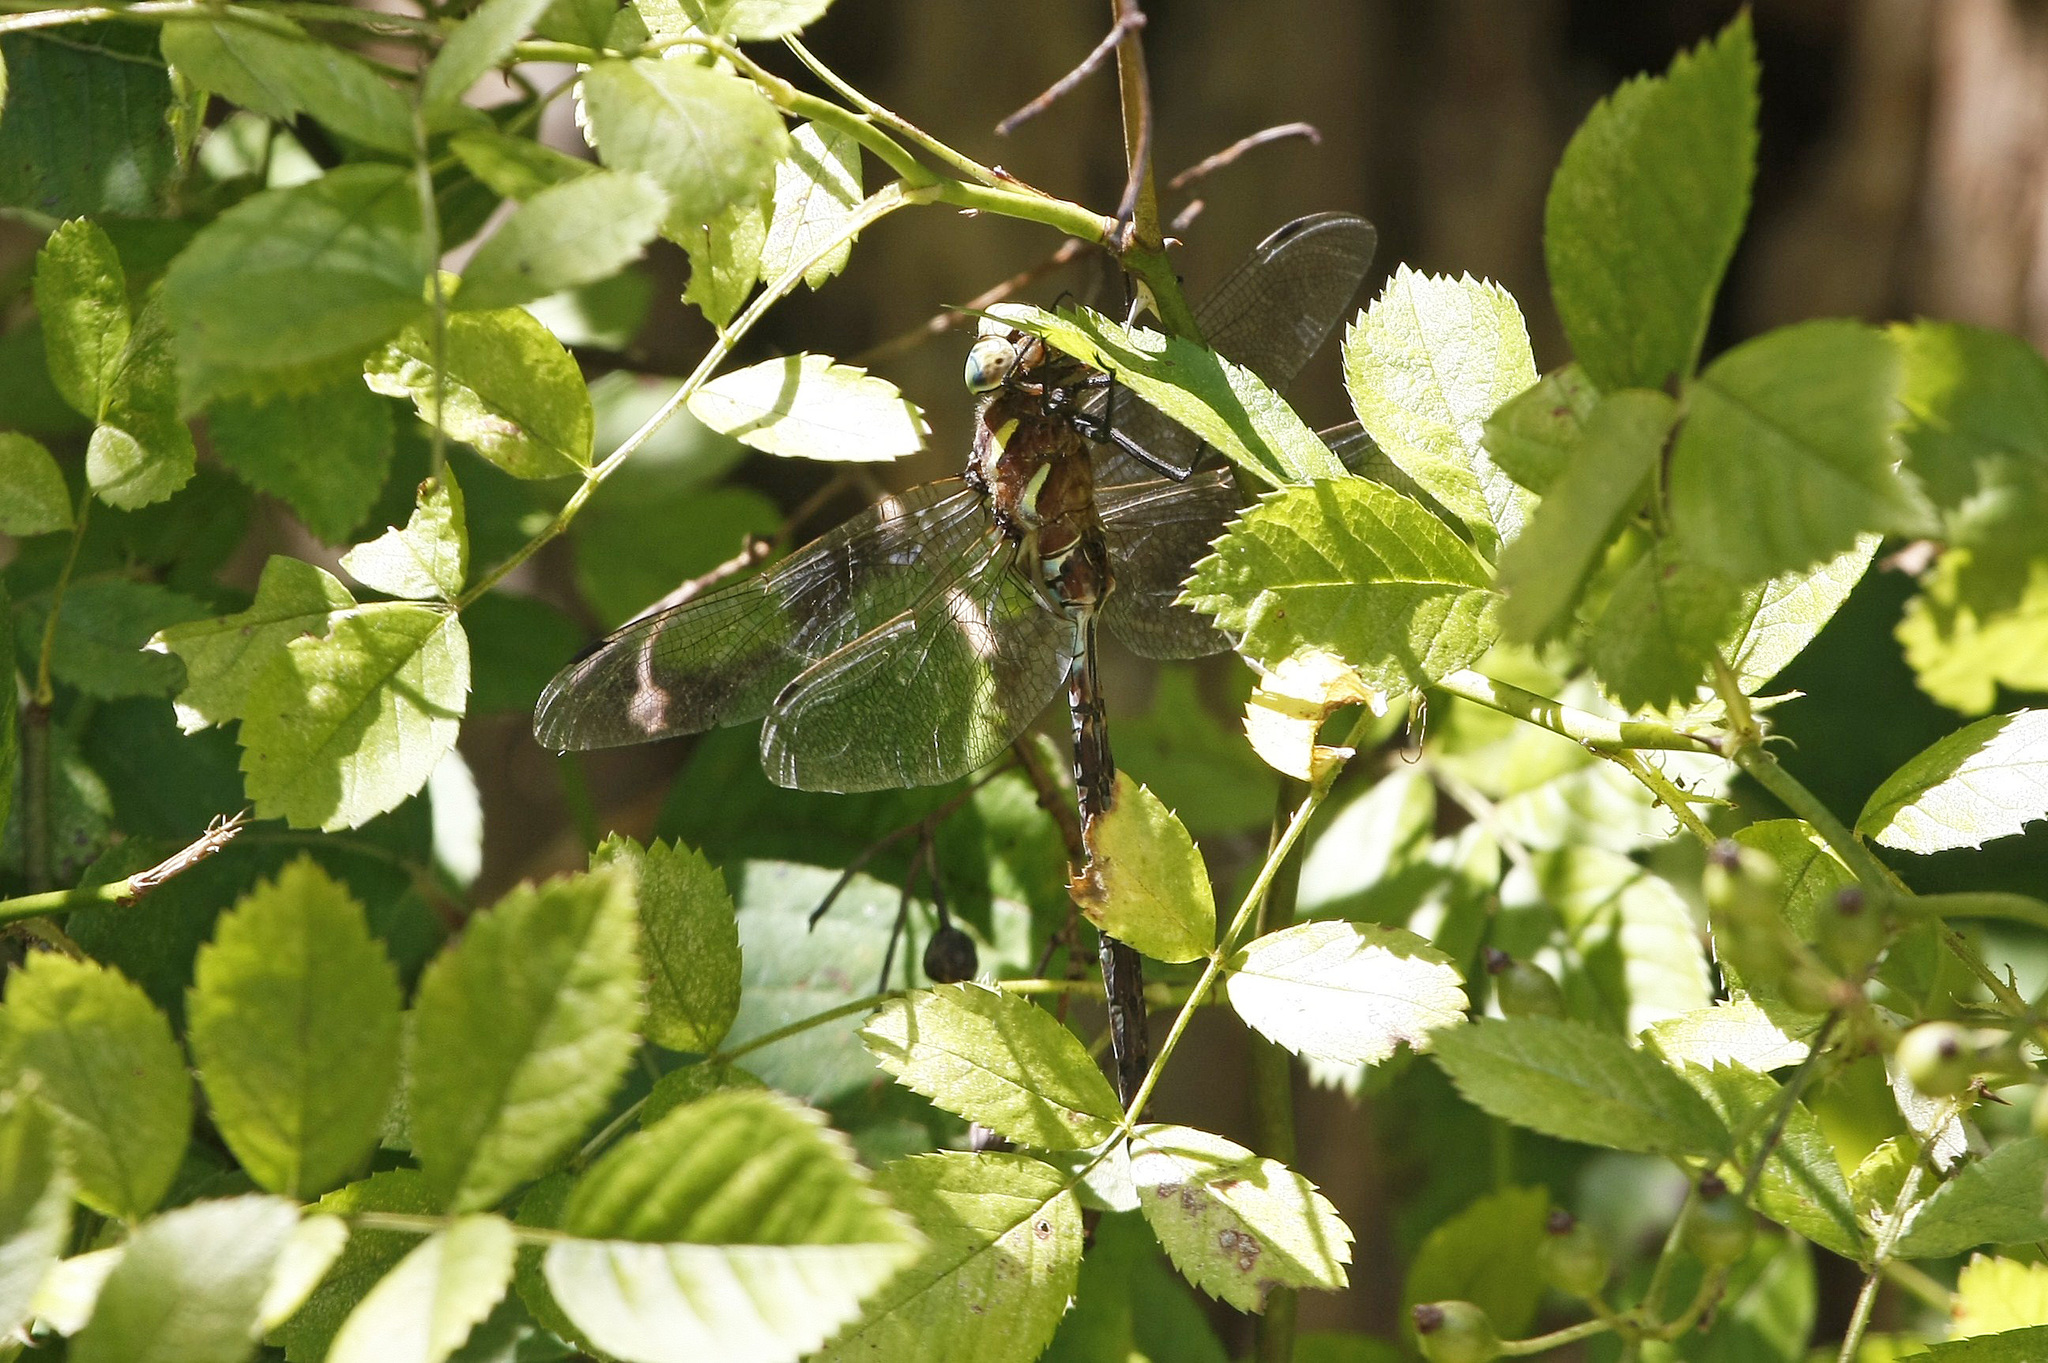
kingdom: Animalia
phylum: Arthropoda
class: Insecta
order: Odonata
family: Aeshnidae
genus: Aeshna
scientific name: Aeshna constricta
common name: Lance-tipped darner
